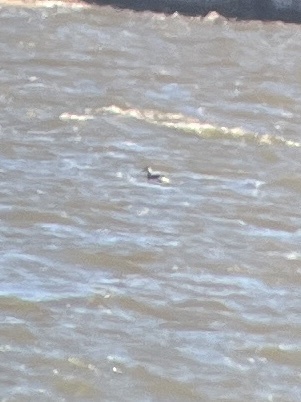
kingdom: Animalia
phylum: Chordata
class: Aves
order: Podicipediformes
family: Podicipedidae
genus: Podiceps
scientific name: Podiceps auritus
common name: Horned grebe
